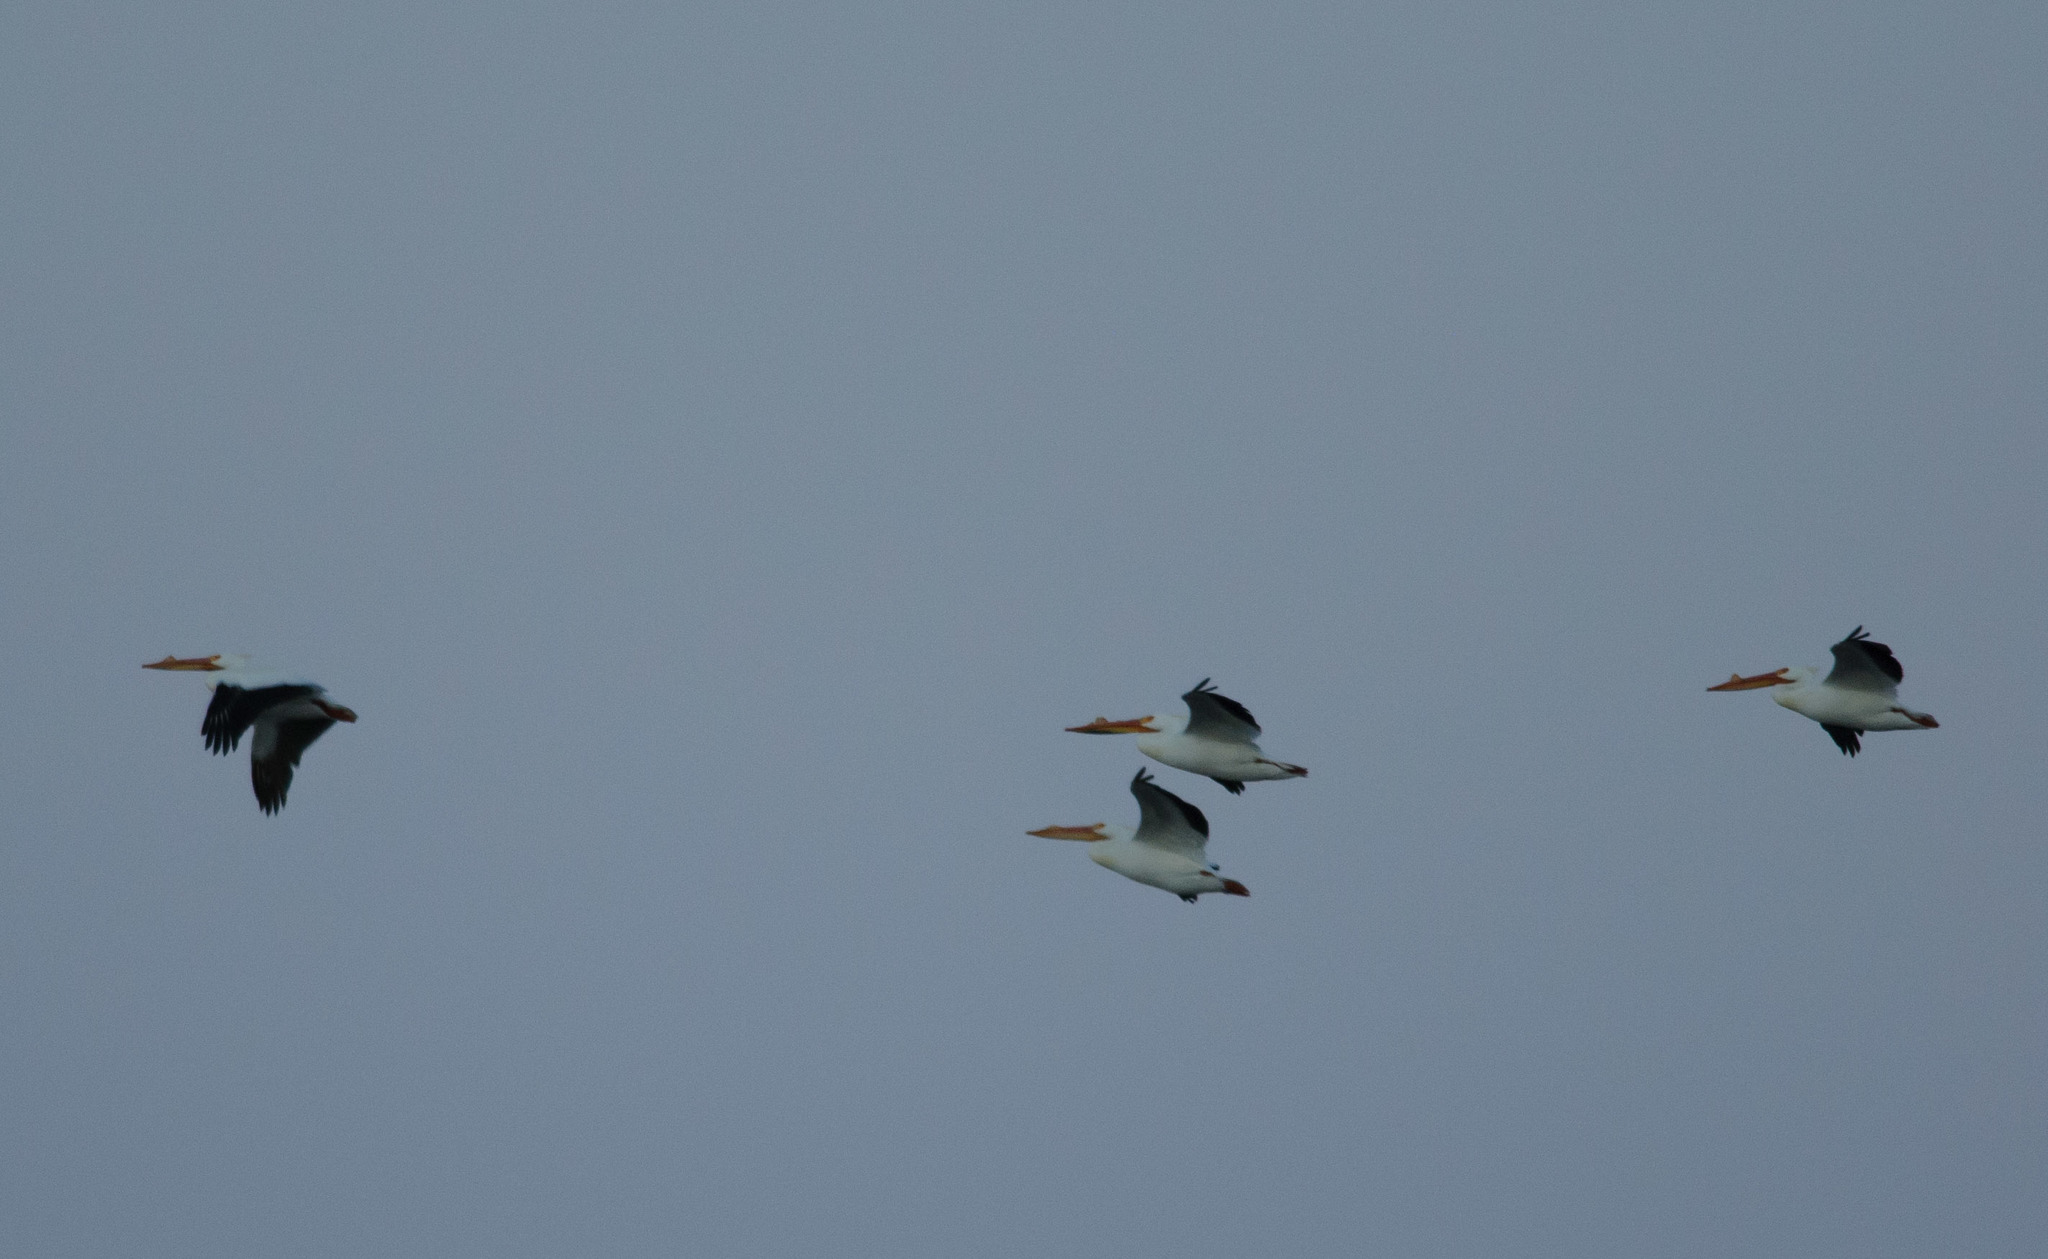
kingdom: Animalia
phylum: Chordata
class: Aves
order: Pelecaniformes
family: Pelecanidae
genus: Pelecanus
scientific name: Pelecanus erythrorhynchos
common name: American white pelican
